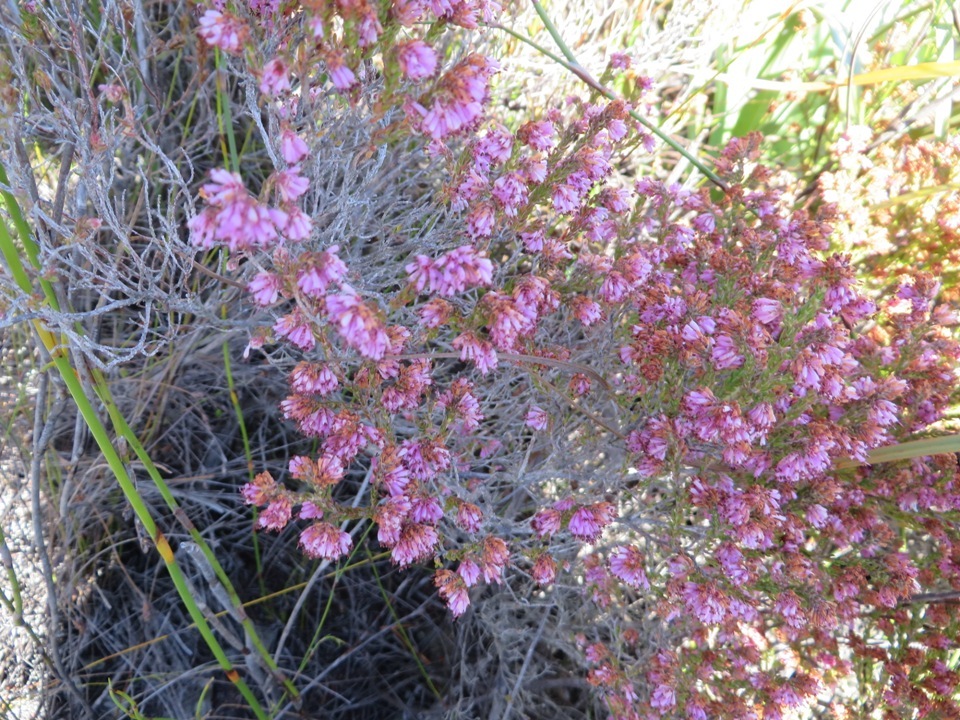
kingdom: Plantae
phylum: Tracheophyta
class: Magnoliopsida
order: Ericales
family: Ericaceae
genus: Erica
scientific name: Erica labialis
